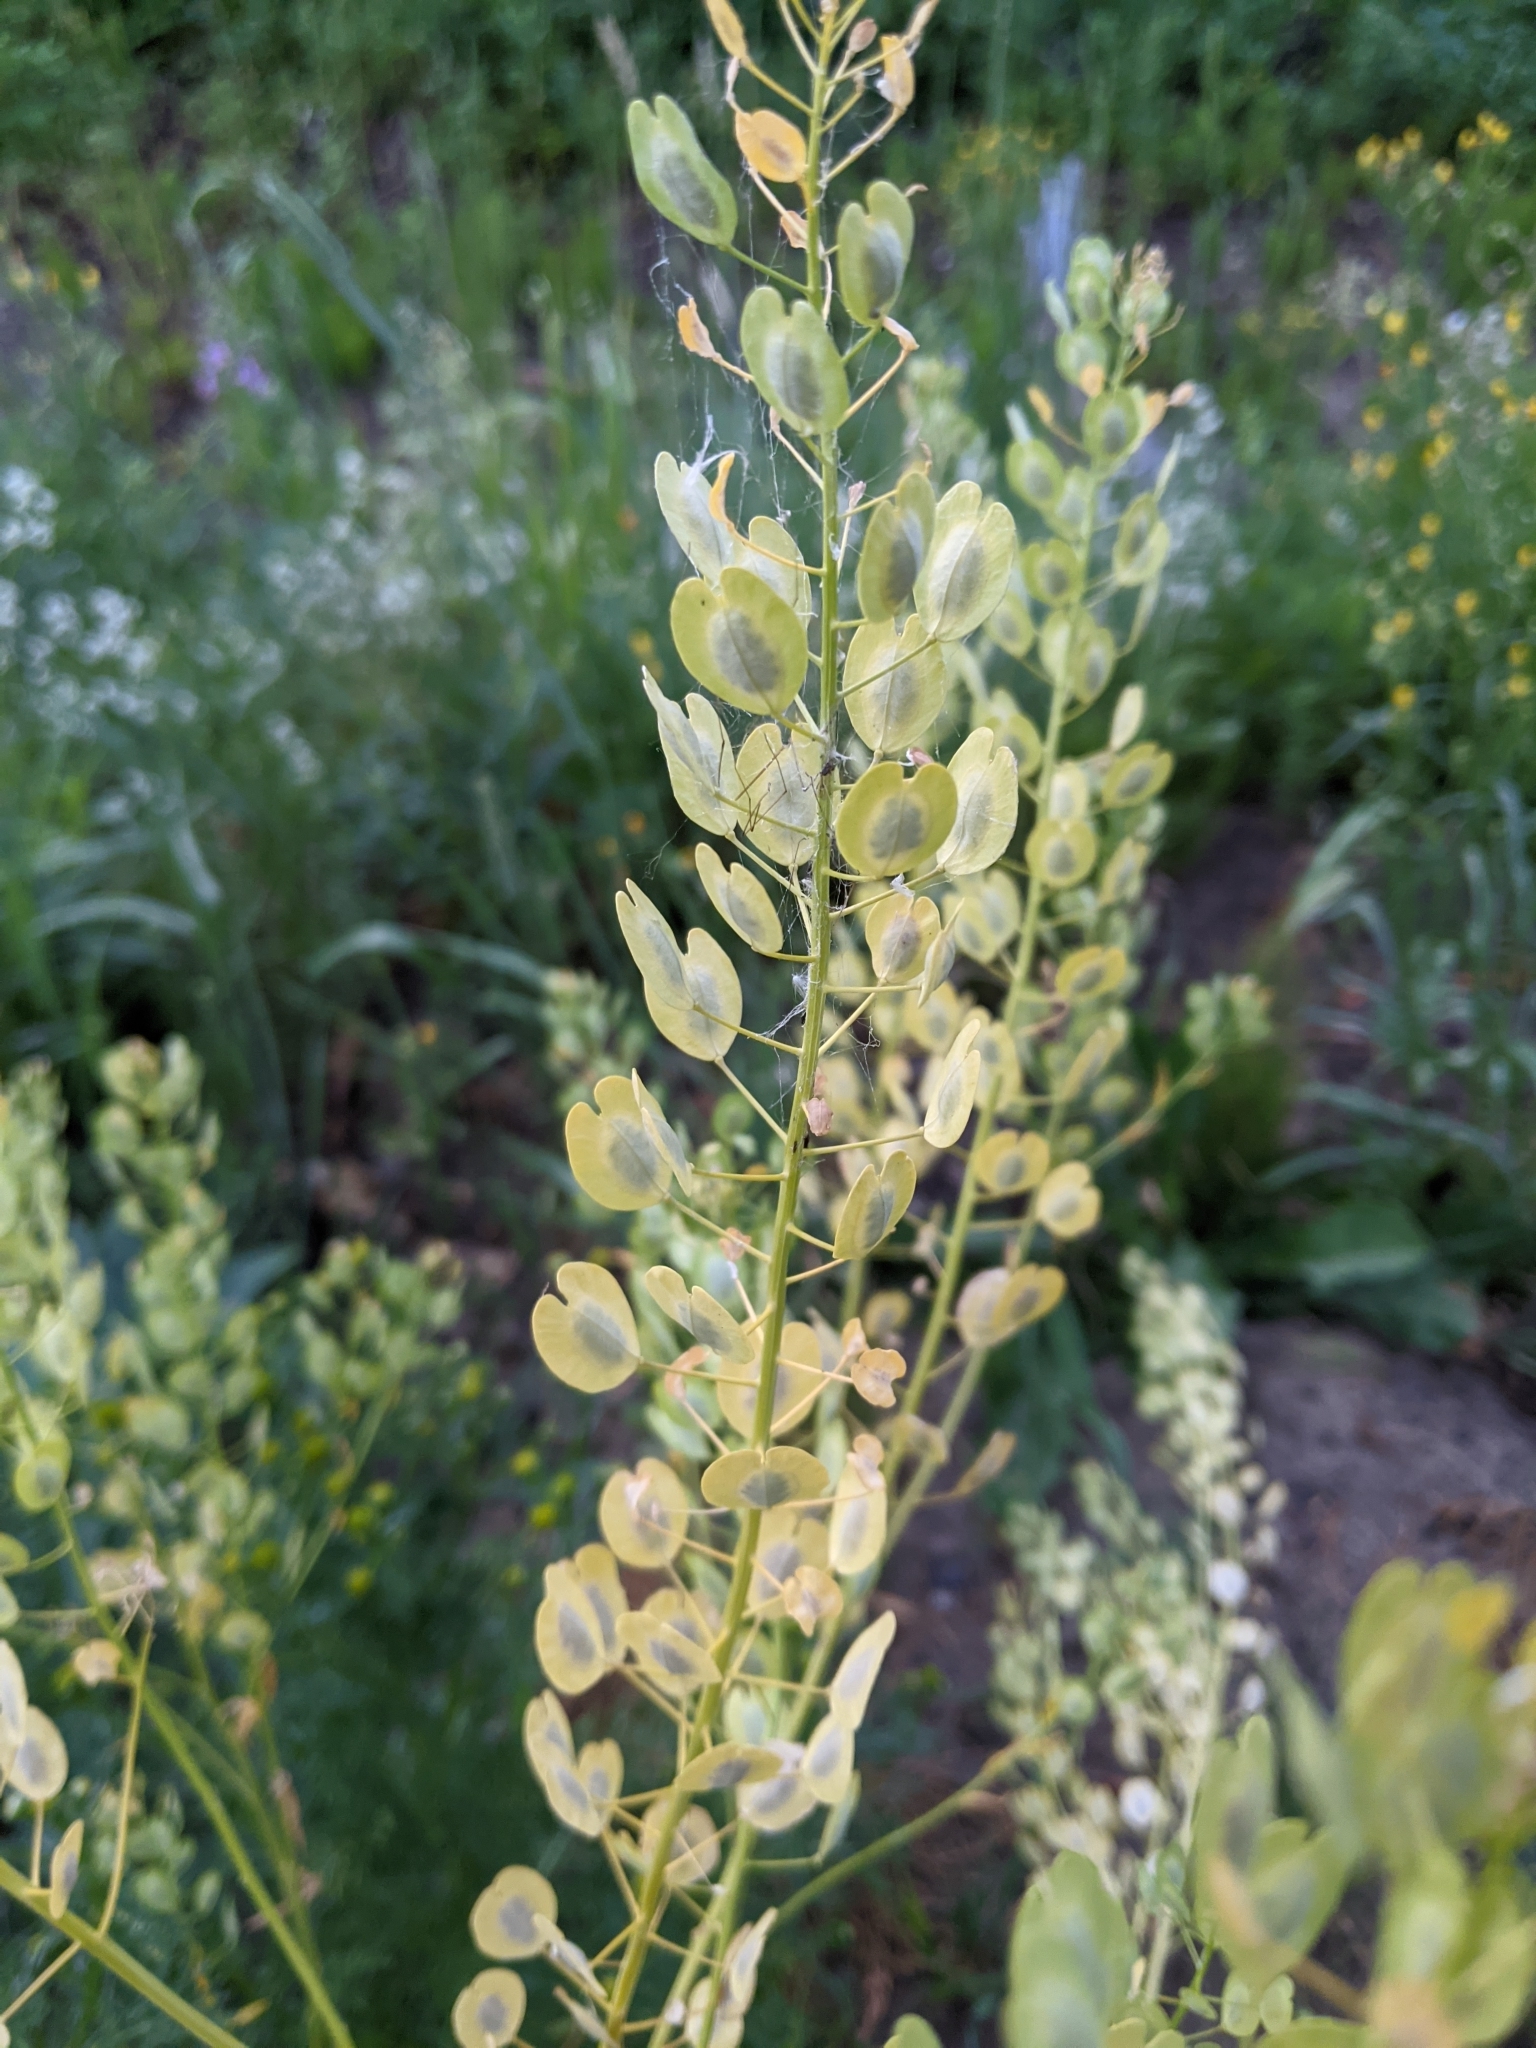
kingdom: Plantae
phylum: Tracheophyta
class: Magnoliopsida
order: Brassicales
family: Brassicaceae
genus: Thlaspi
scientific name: Thlaspi arvense
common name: Field pennycress
